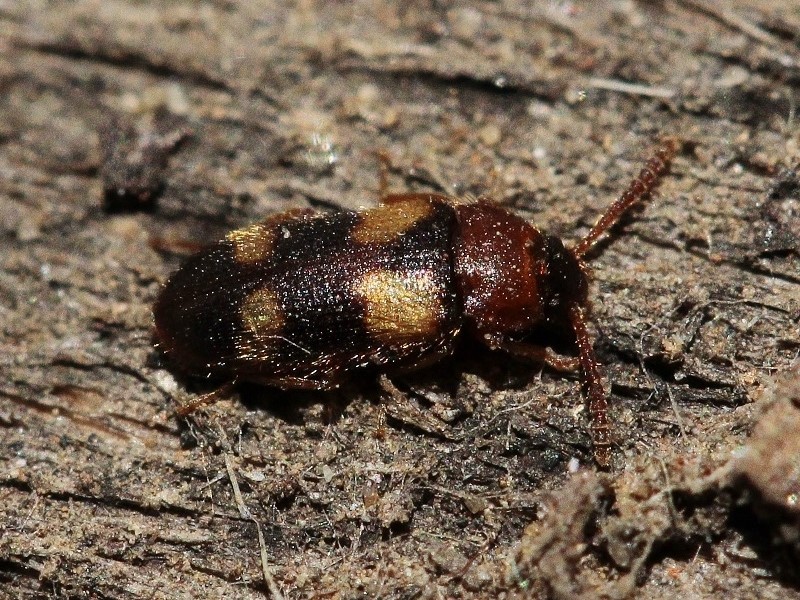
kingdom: Animalia
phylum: Arthropoda
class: Insecta
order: Coleoptera
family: Mycetophagidae
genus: Mycetophagus
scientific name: Mycetophagus fulvicollis
